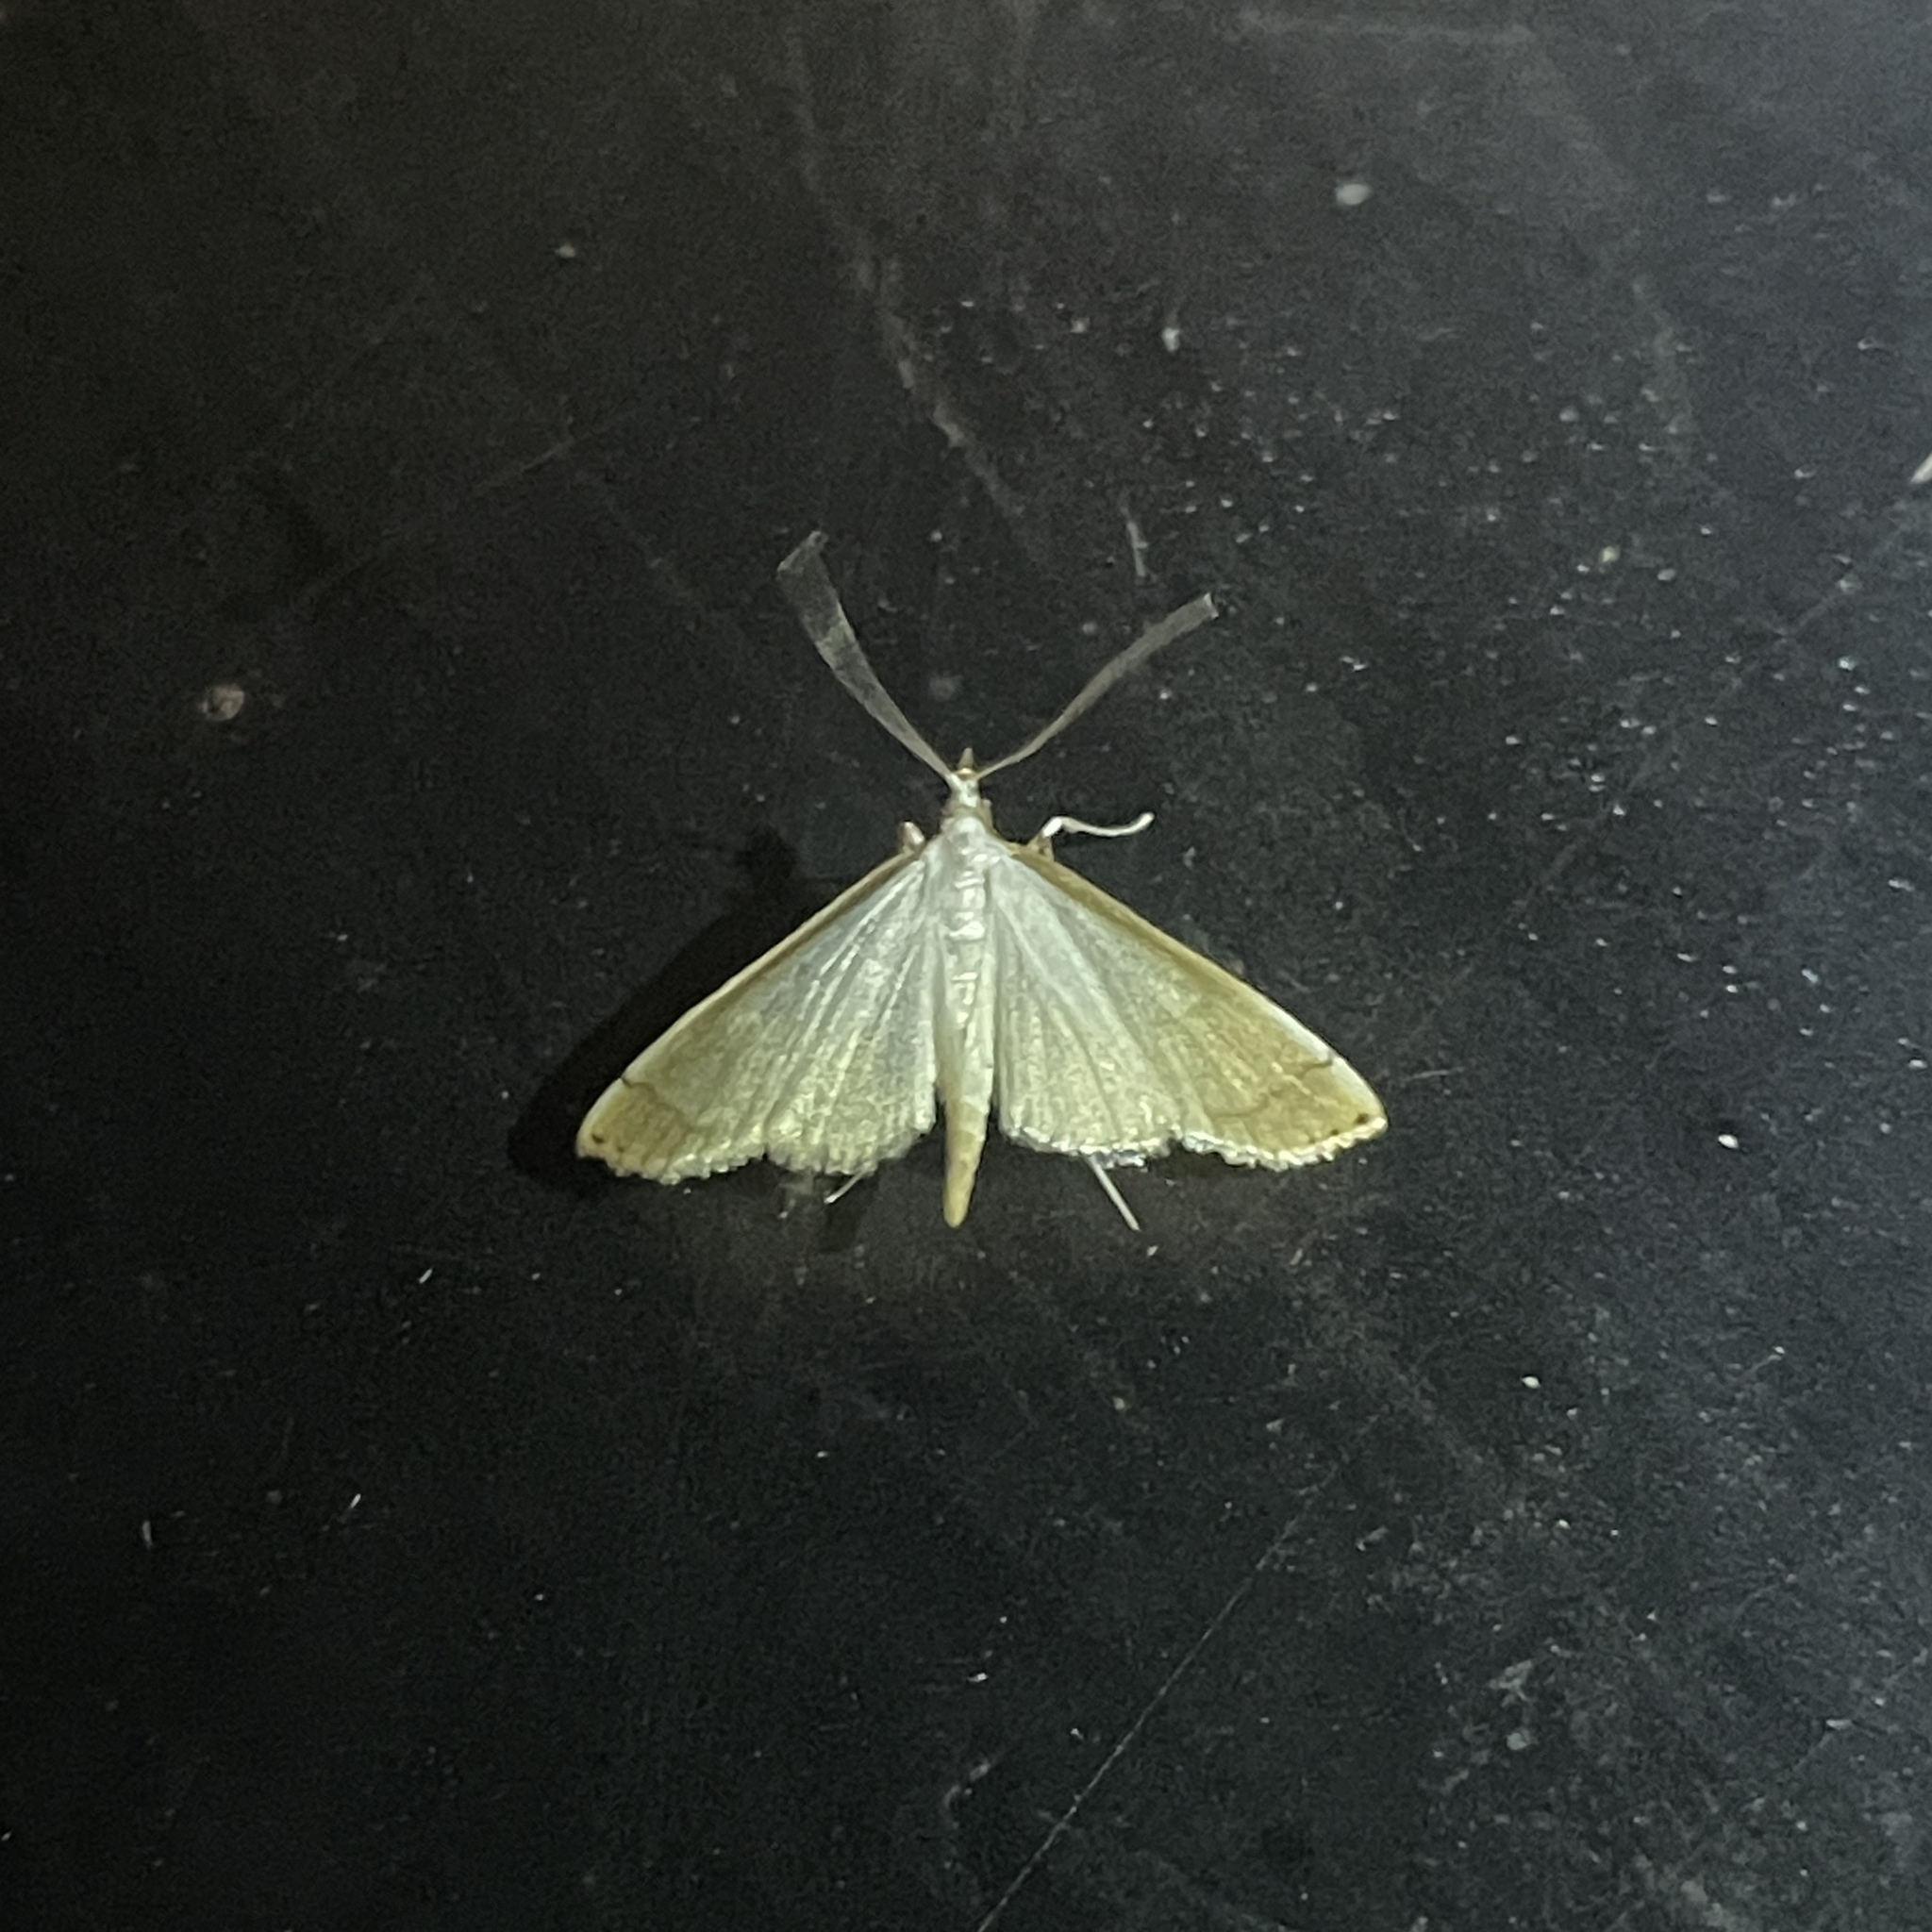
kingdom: Animalia
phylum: Arthropoda
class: Insecta
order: Lepidoptera
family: Crambidae
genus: Stenia
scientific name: Stenia saurialis
